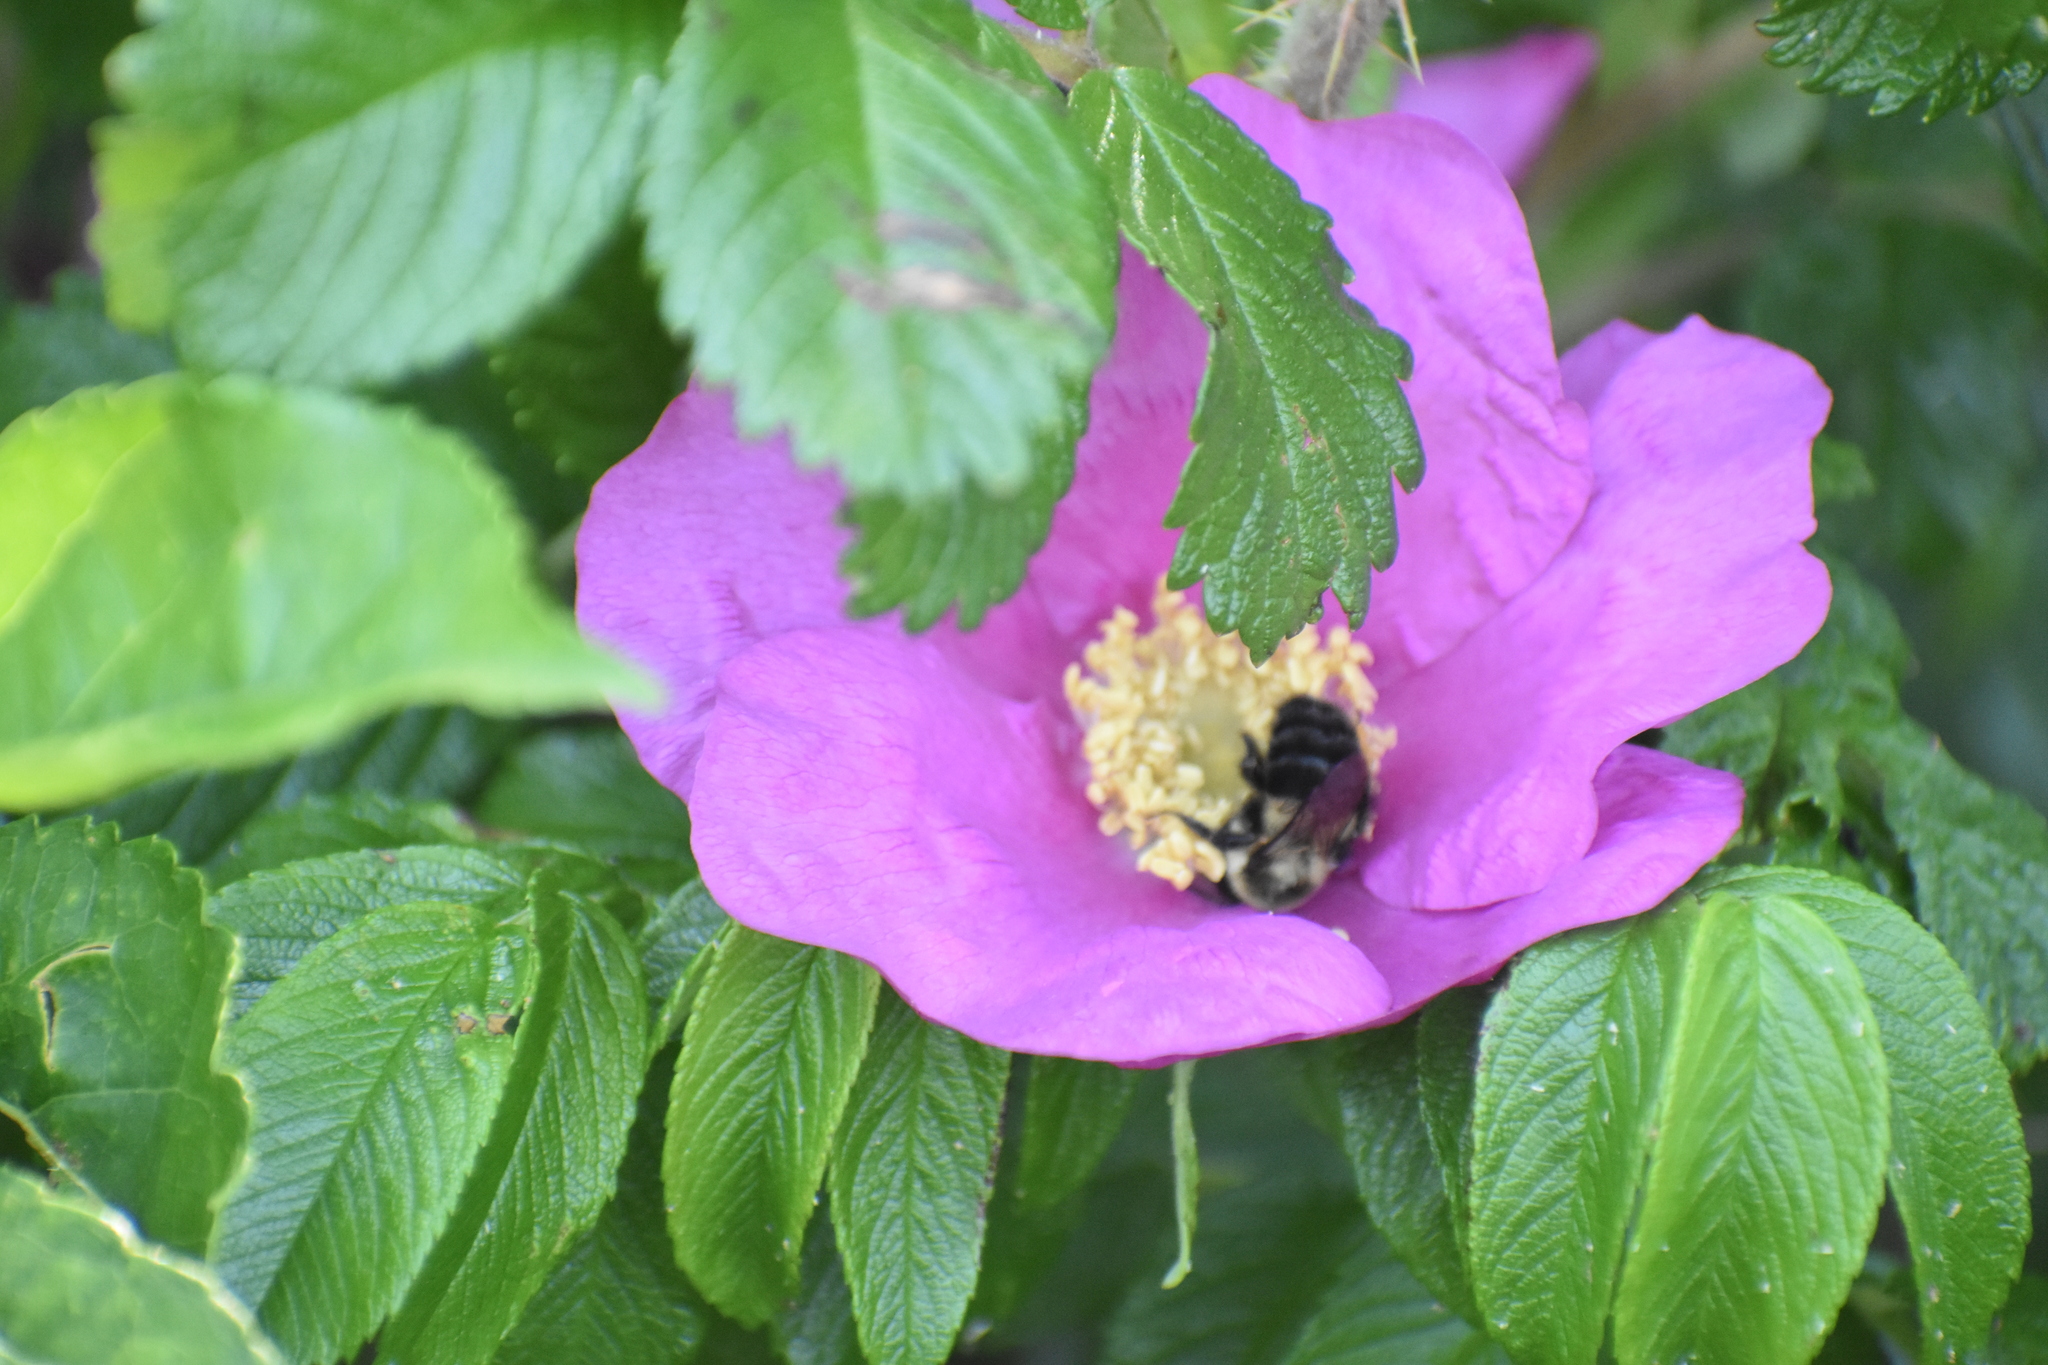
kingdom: Animalia
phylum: Arthropoda
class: Insecta
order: Hymenoptera
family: Apidae
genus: Bombus
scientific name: Bombus impatiens
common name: Common eastern bumble bee
